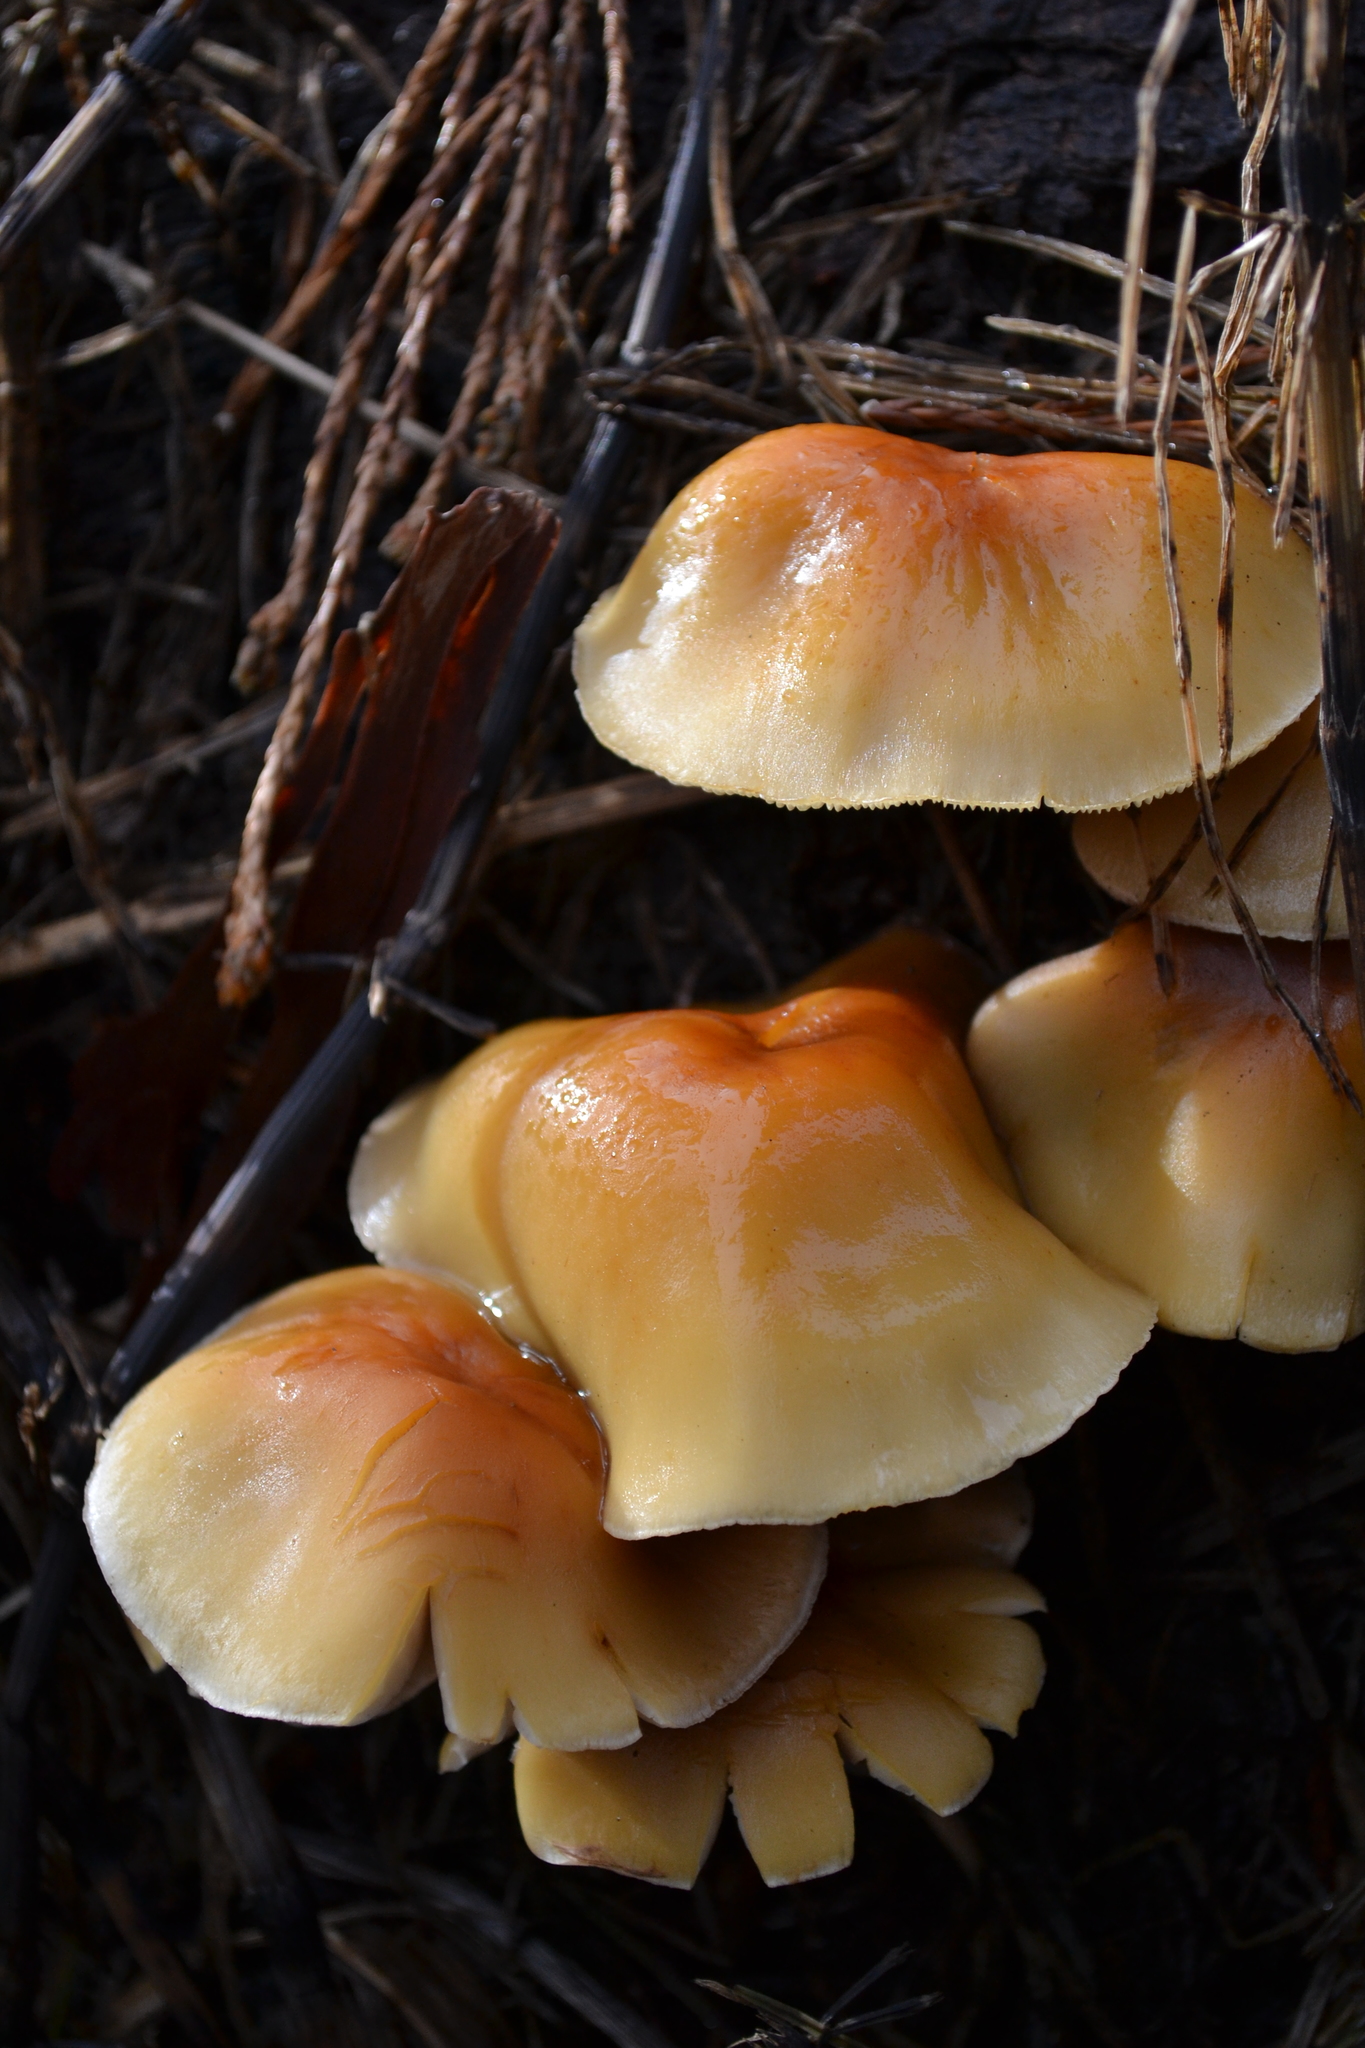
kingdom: Fungi
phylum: Basidiomycota
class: Agaricomycetes
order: Agaricales
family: Omphalotaceae
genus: Gymnopus
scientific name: Gymnopus dryophilus
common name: Penny top
